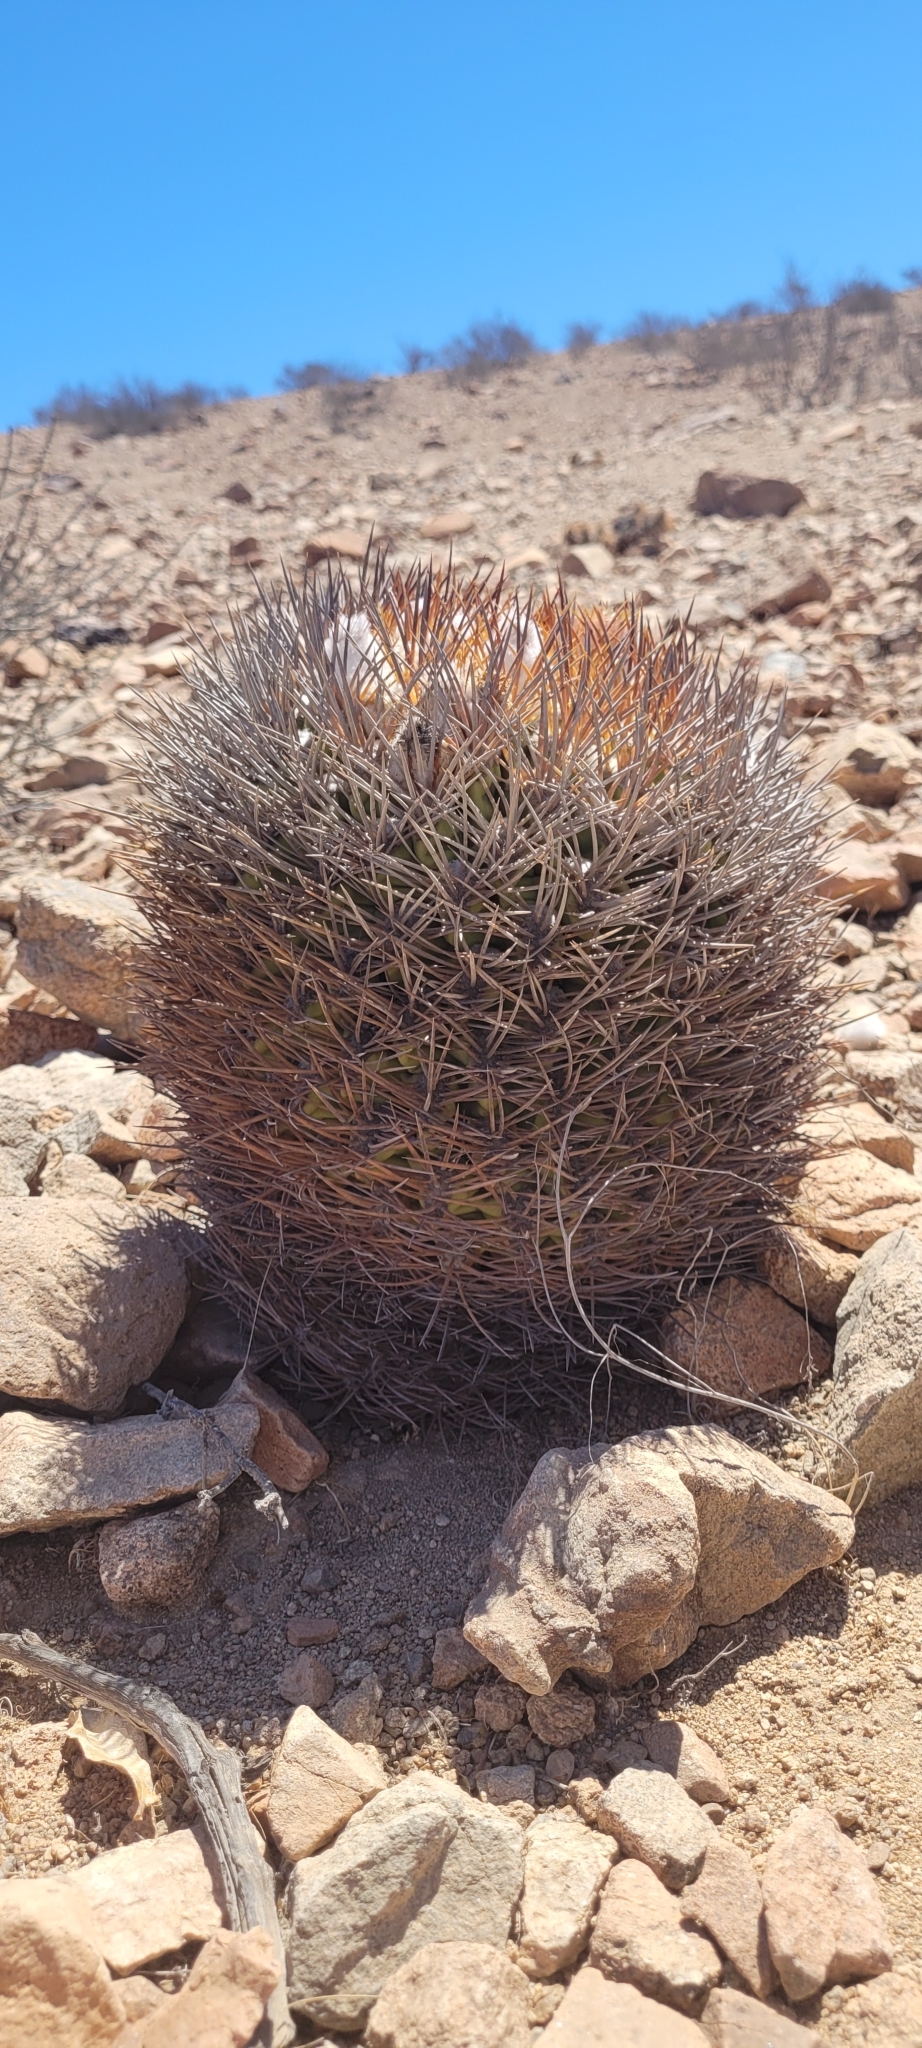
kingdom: Plantae
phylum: Tracheophyta
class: Magnoliopsida
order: Caryophyllales
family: Cactaceae
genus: Eriosyce
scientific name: Eriosyce aurata
